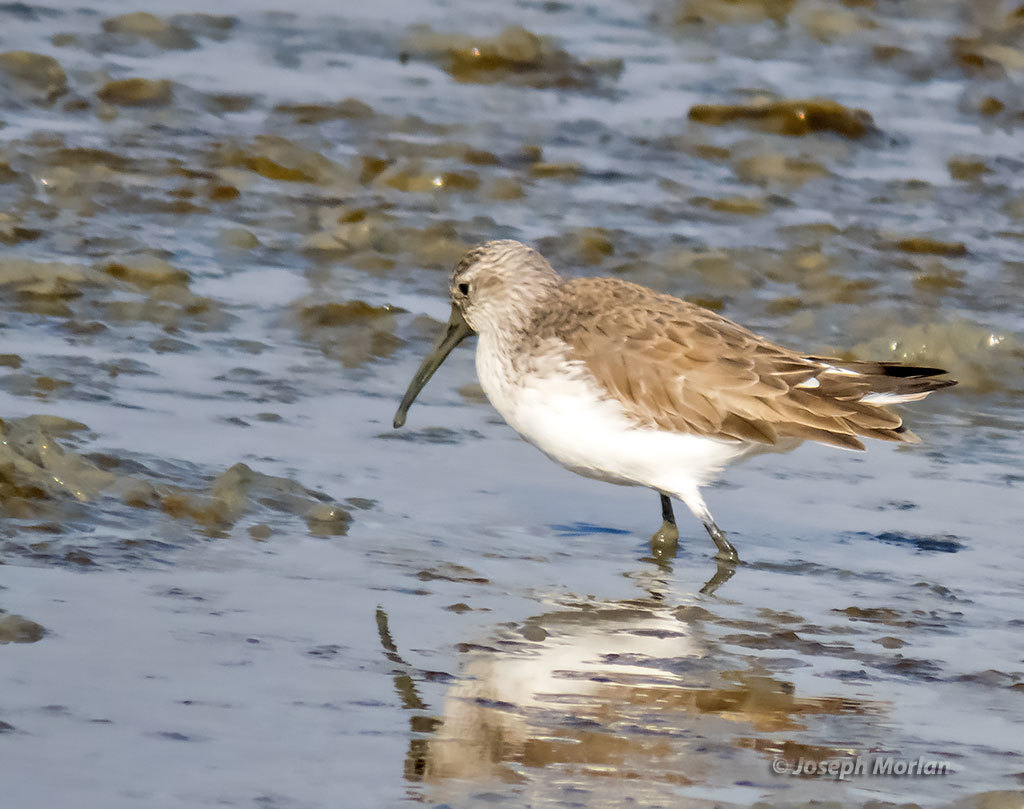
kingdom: Animalia
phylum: Chordata
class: Aves
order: Charadriiformes
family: Scolopacidae
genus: Calidris
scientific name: Calidris ferruginea
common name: Curlew sandpiper
